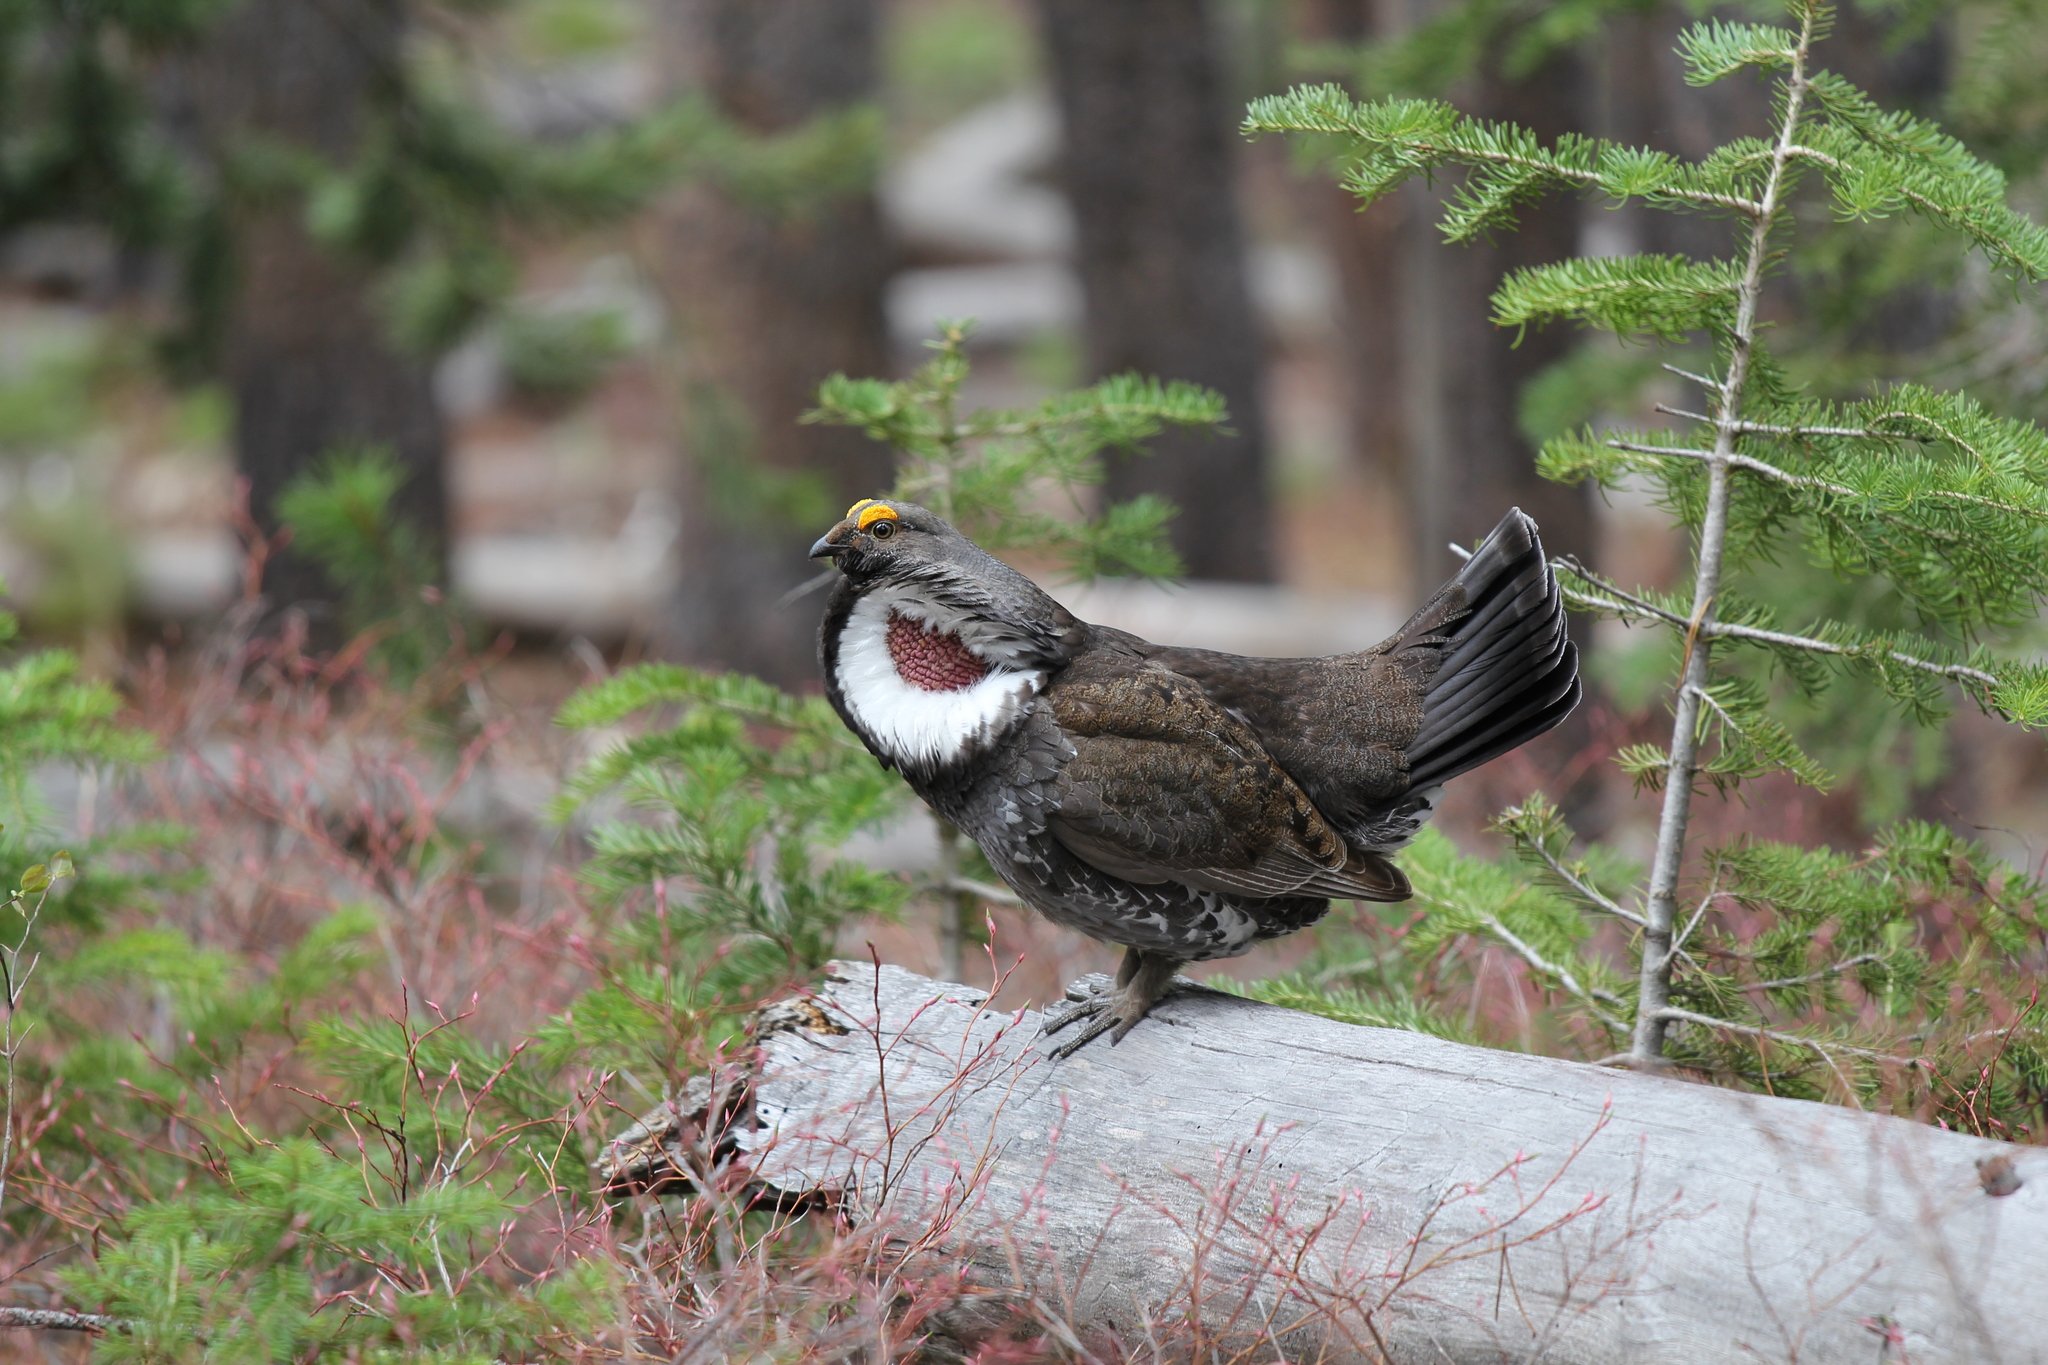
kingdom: Animalia
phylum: Chordata
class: Aves
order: Galliformes
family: Phasianidae
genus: Dendragapus
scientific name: Dendragapus obscurus
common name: Dusky grouse
